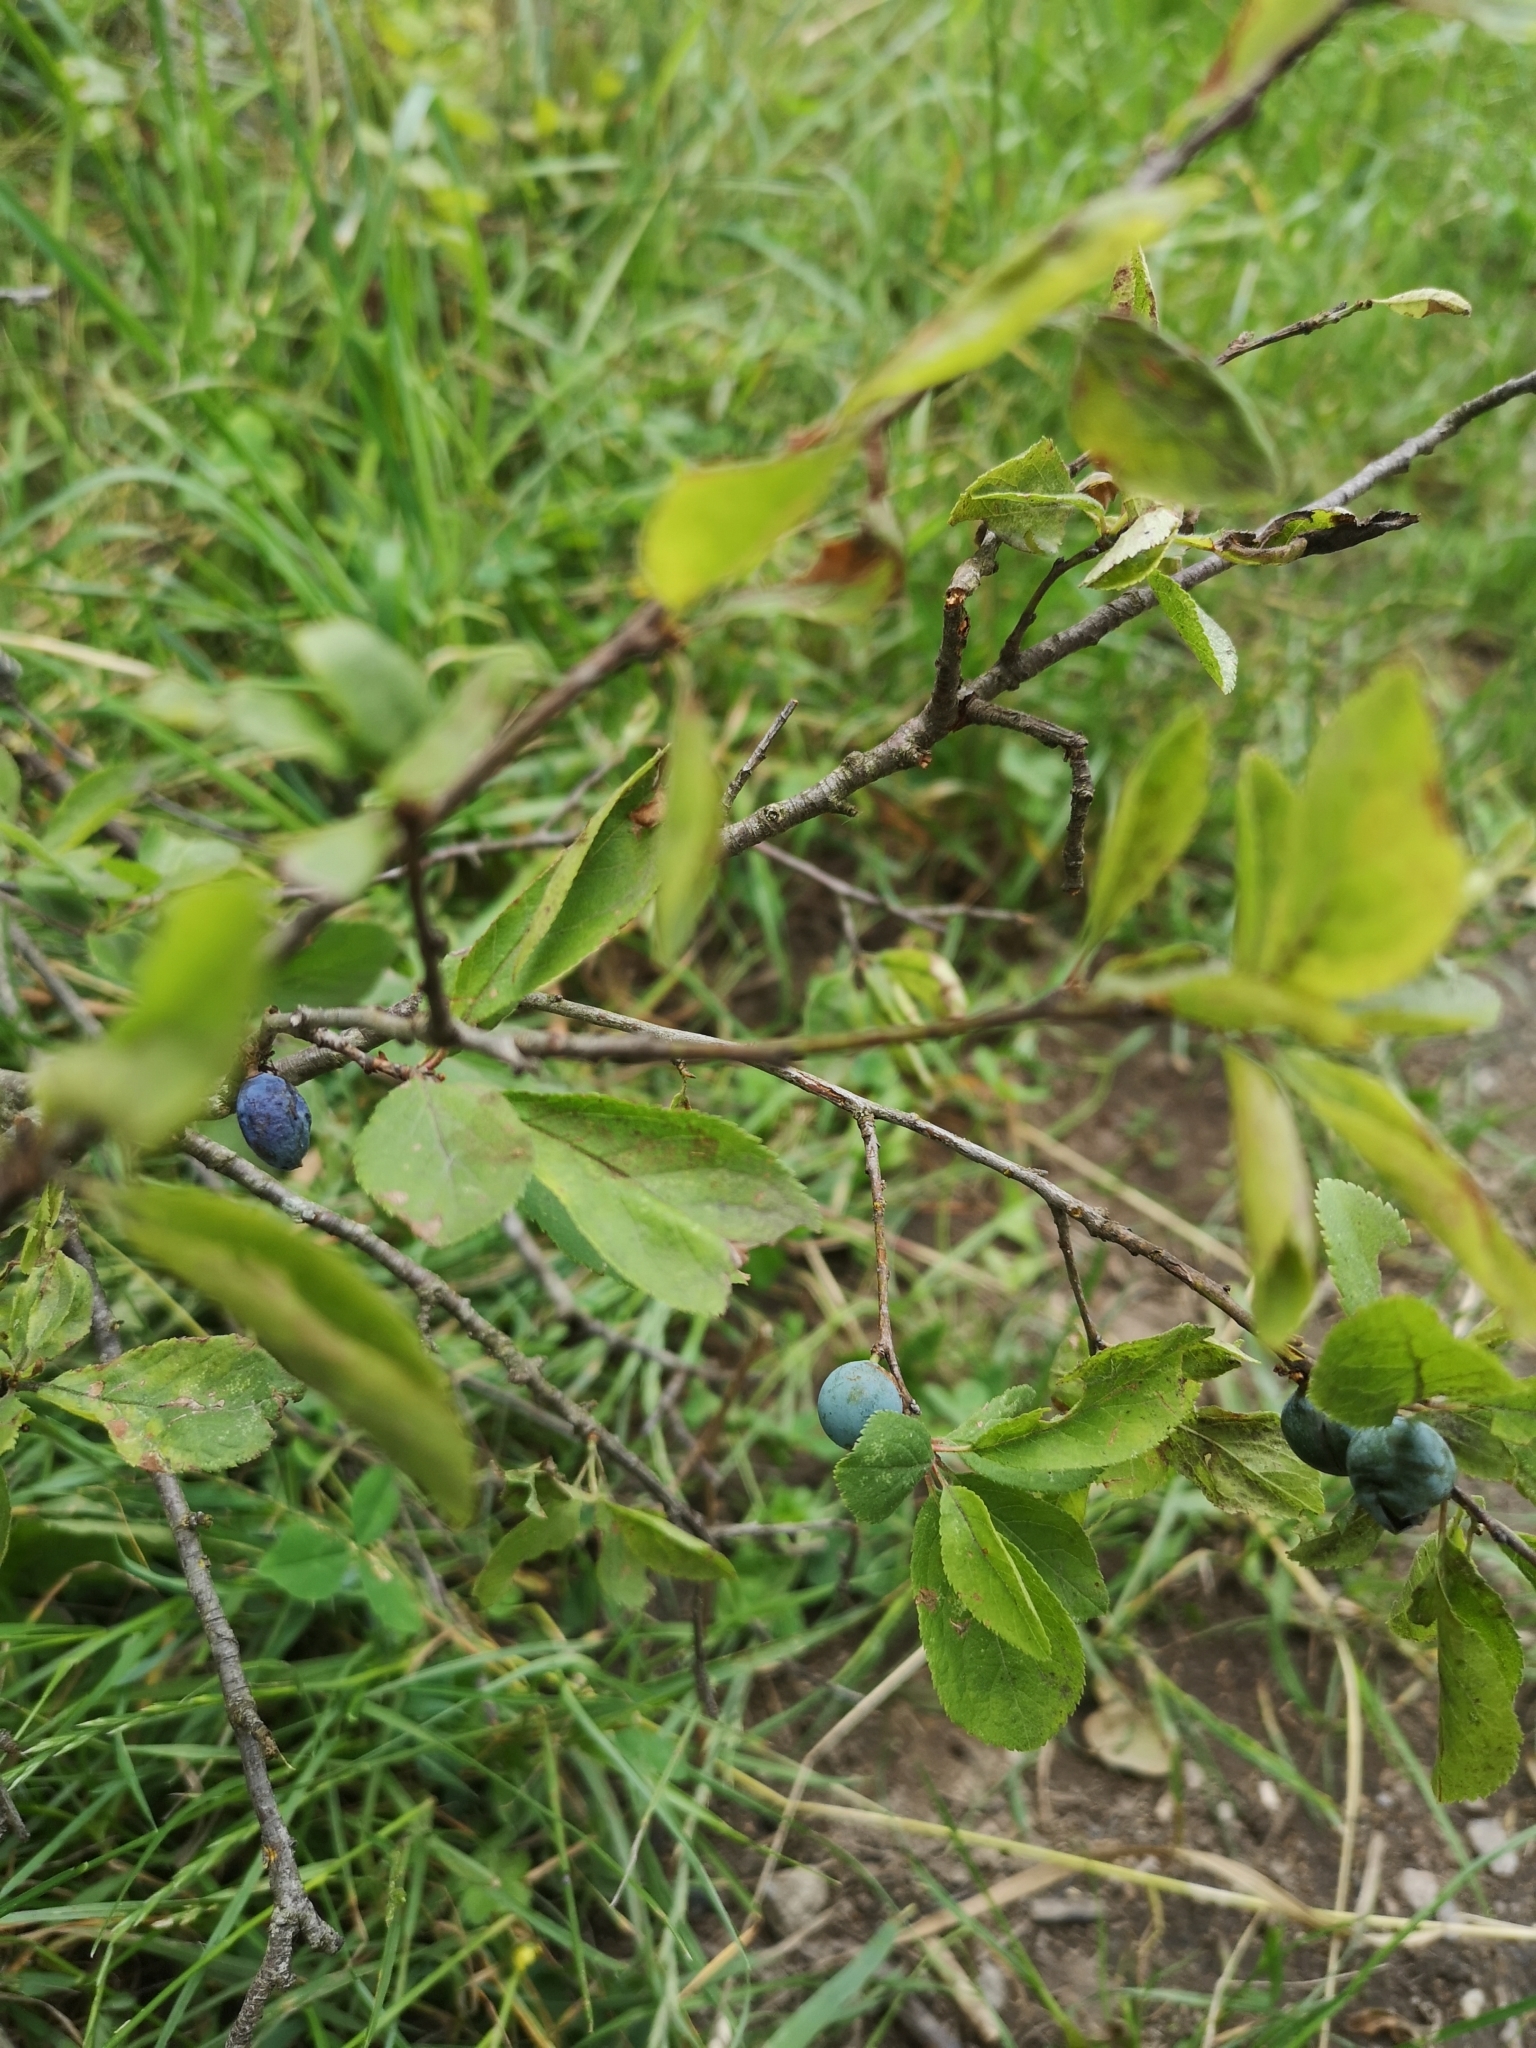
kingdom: Plantae
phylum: Tracheophyta
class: Magnoliopsida
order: Rosales
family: Rosaceae
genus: Prunus
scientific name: Prunus spinosa
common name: Blackthorn
